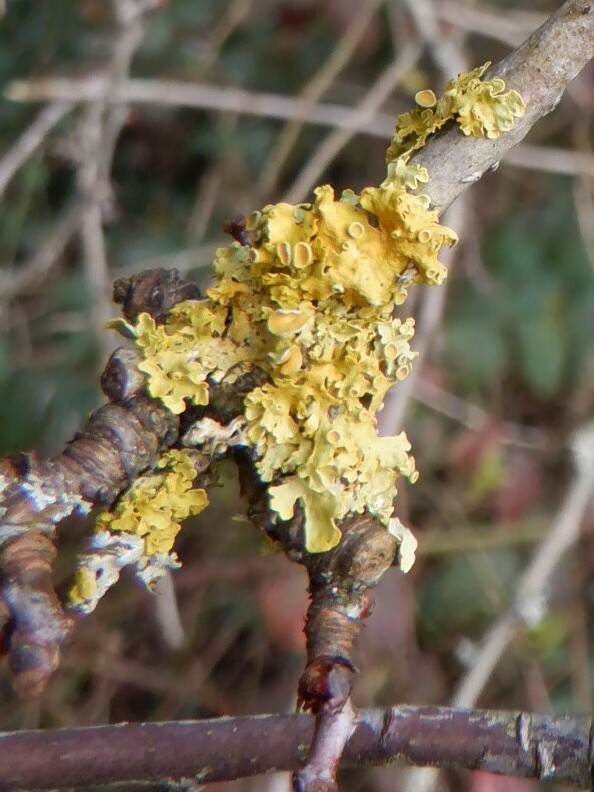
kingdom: Fungi
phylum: Ascomycota
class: Lecanoromycetes
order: Teloschistales
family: Teloschistaceae
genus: Xanthoria
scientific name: Xanthoria parietina
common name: Common orange lichen
